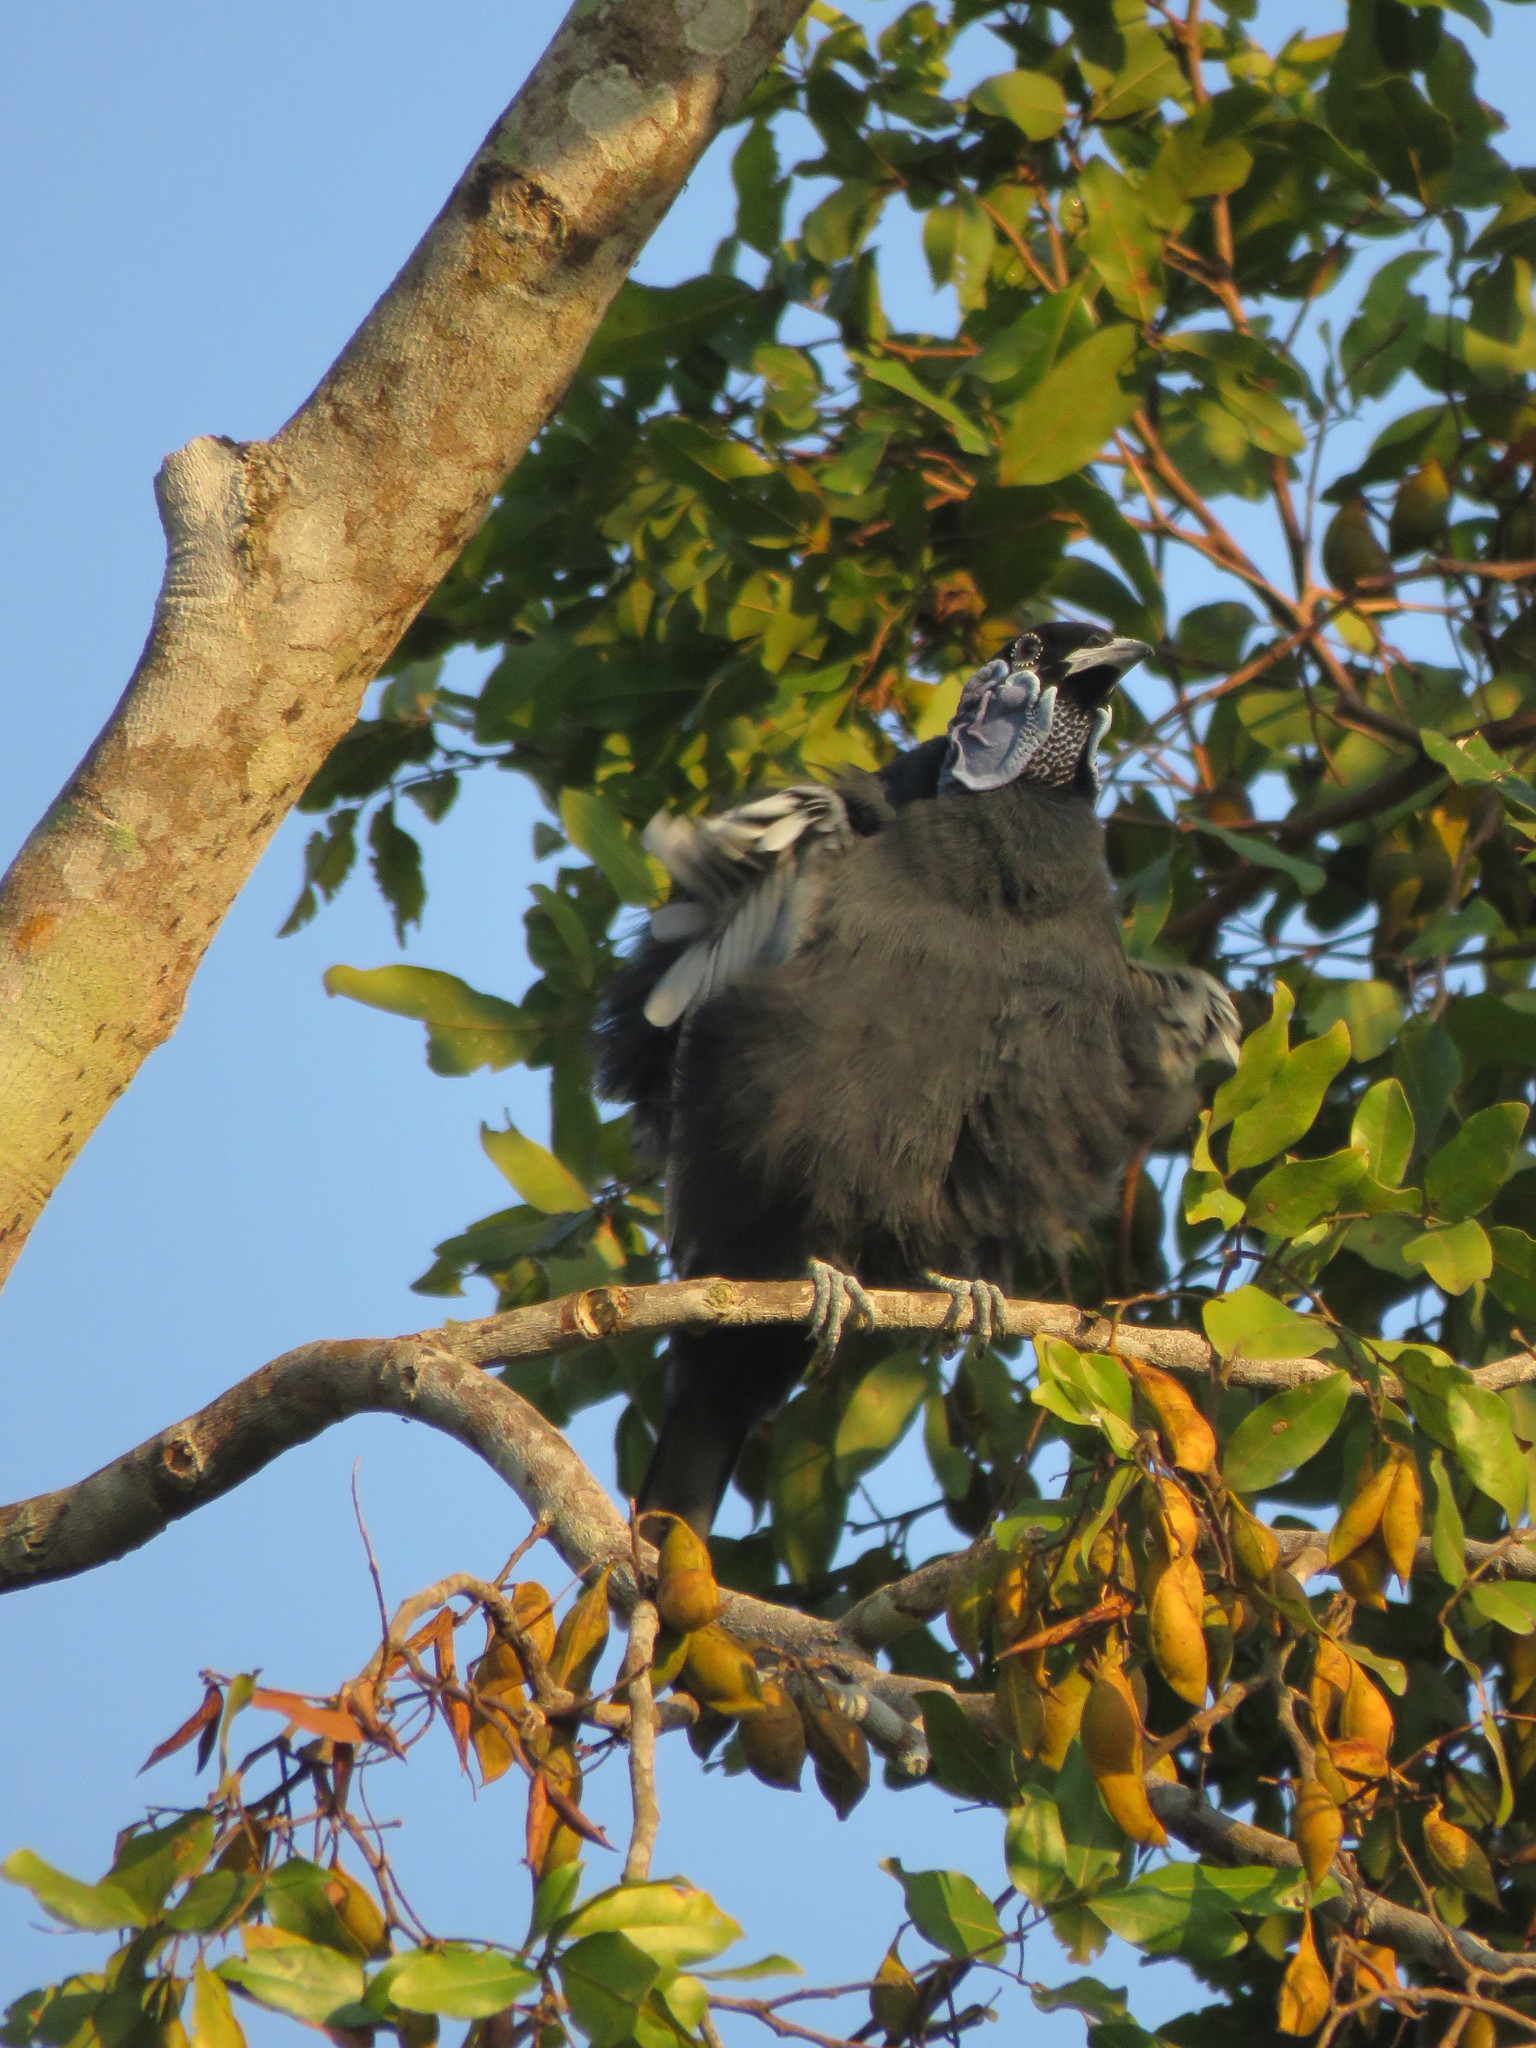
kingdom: Animalia
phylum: Chordata
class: Aves
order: Passeriformes
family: Cotingidae
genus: Gymnoderus
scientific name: Gymnoderus foetidus
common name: Bare-necked fruitcrow
